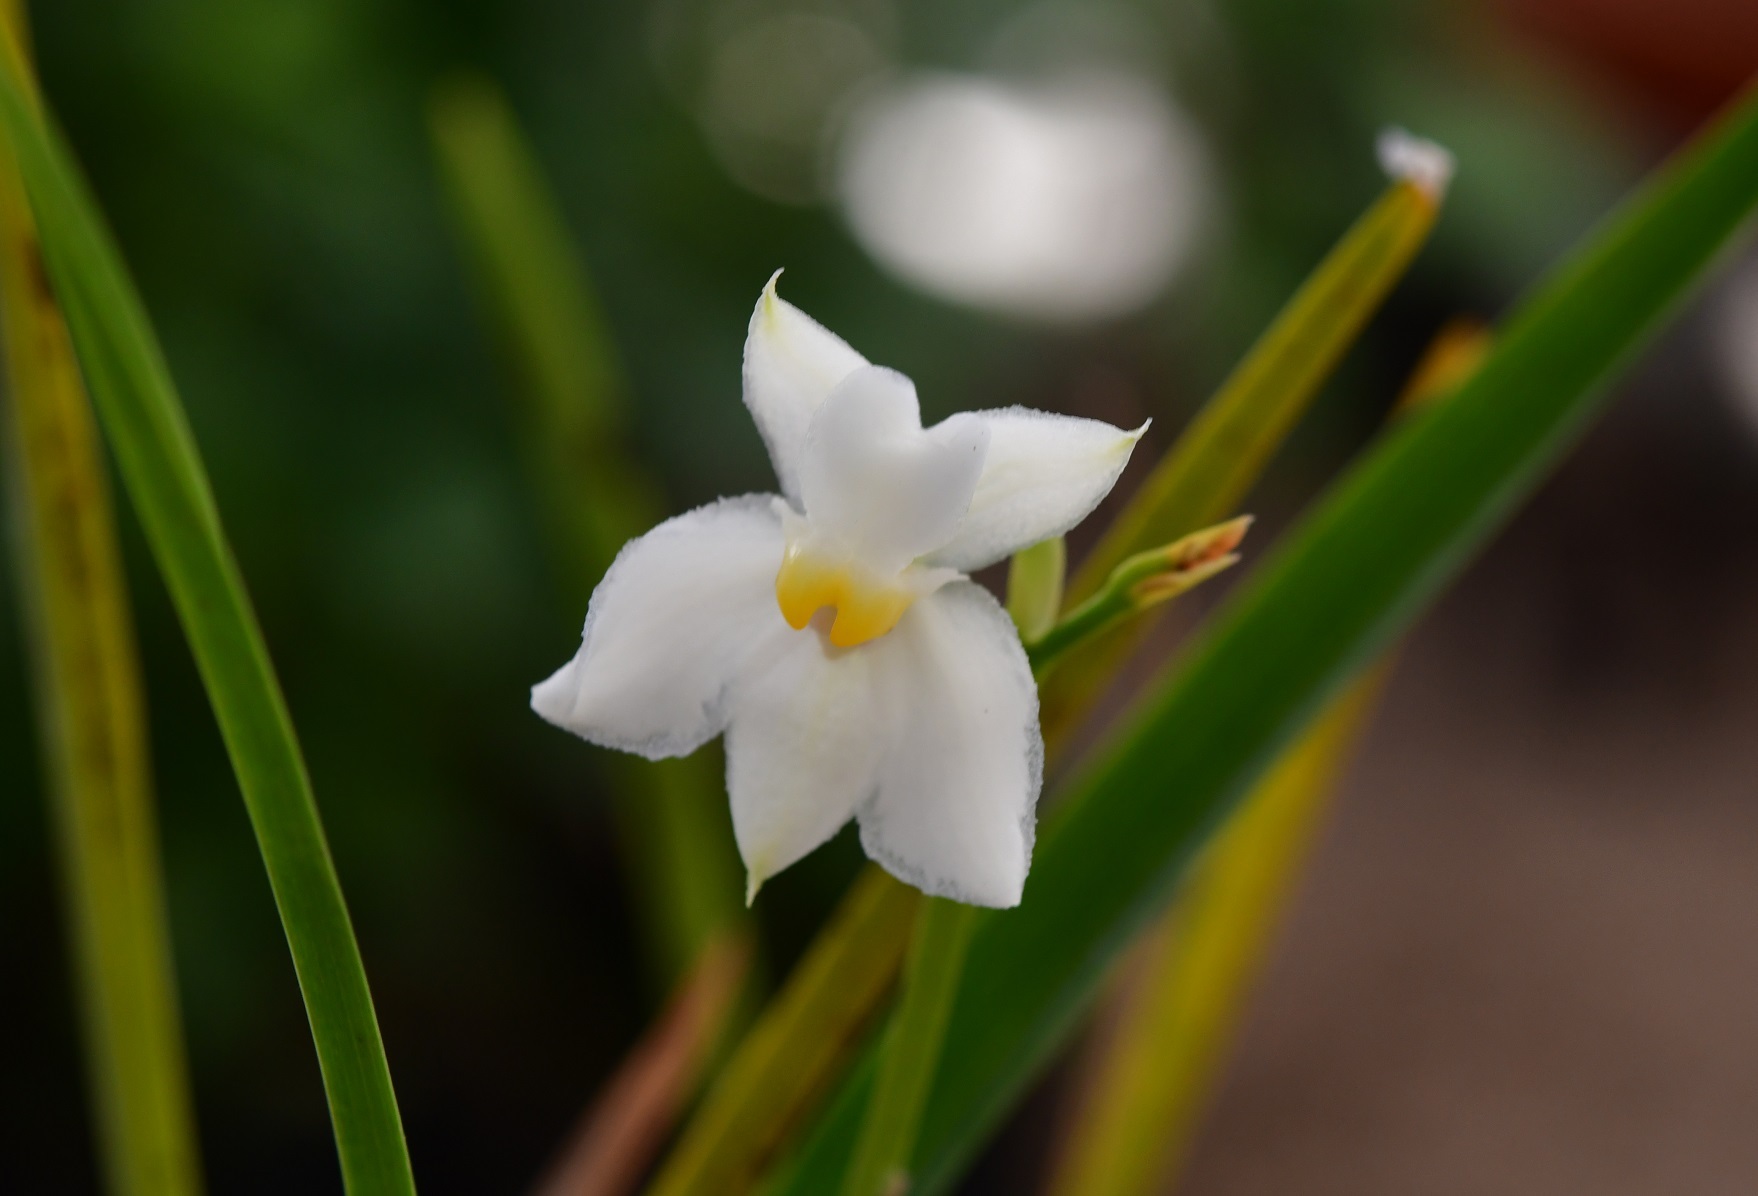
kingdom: Plantae
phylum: Tracheophyta
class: Liliopsida
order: Asparagales
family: Orchidaceae
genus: Cuitlauzina
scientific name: Cuitlauzina pulchella
